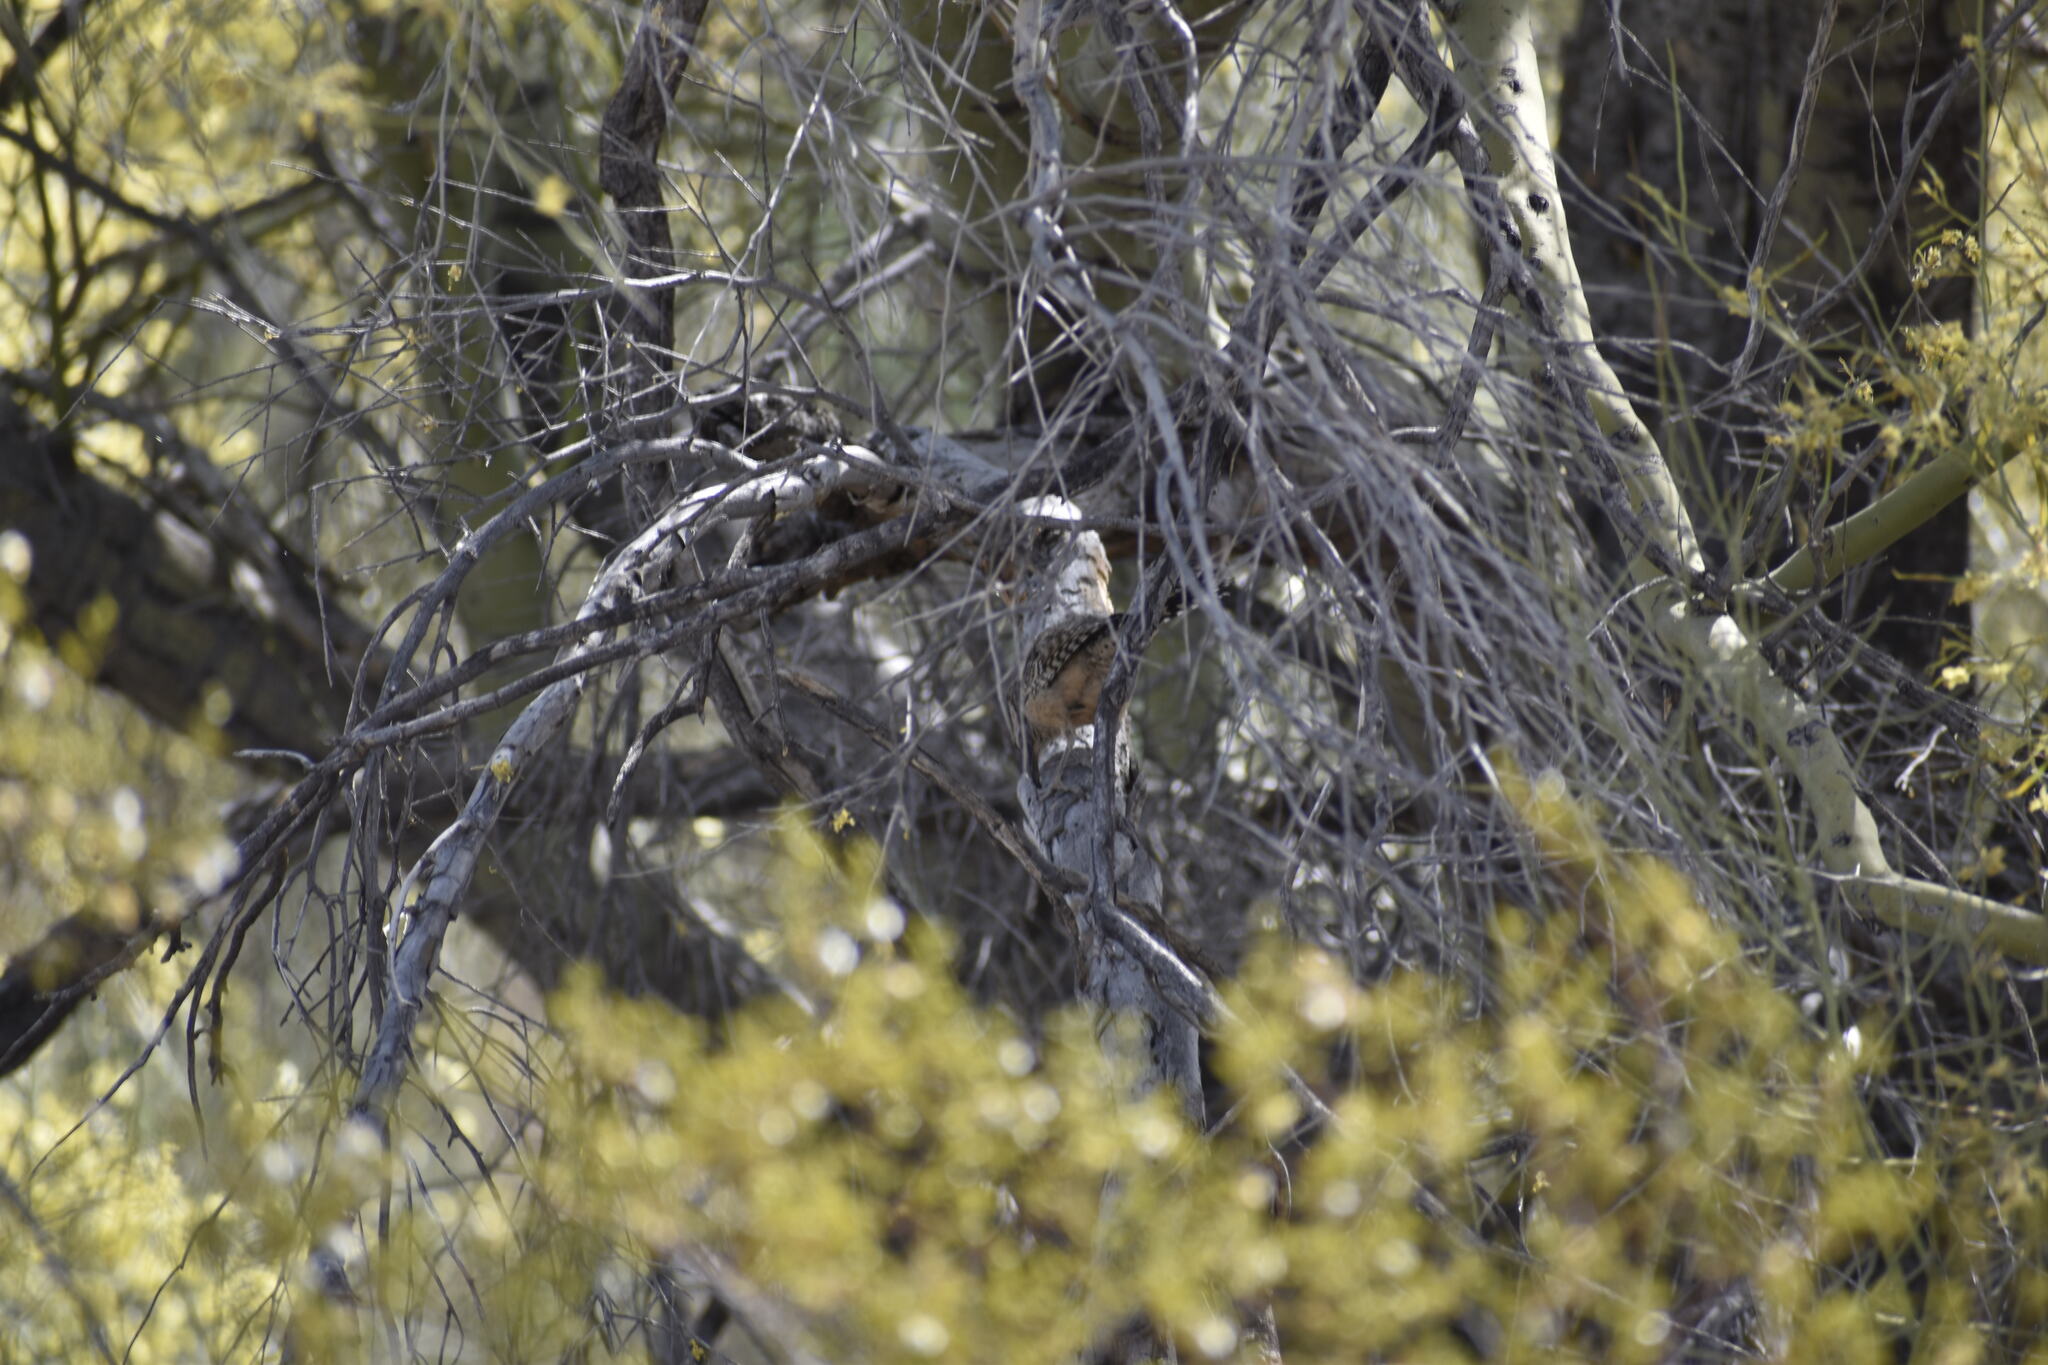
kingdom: Animalia
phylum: Chordata
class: Aves
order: Passeriformes
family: Troglodytidae
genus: Campylorhynchus
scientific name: Campylorhynchus brunneicapillus
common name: Cactus wren
